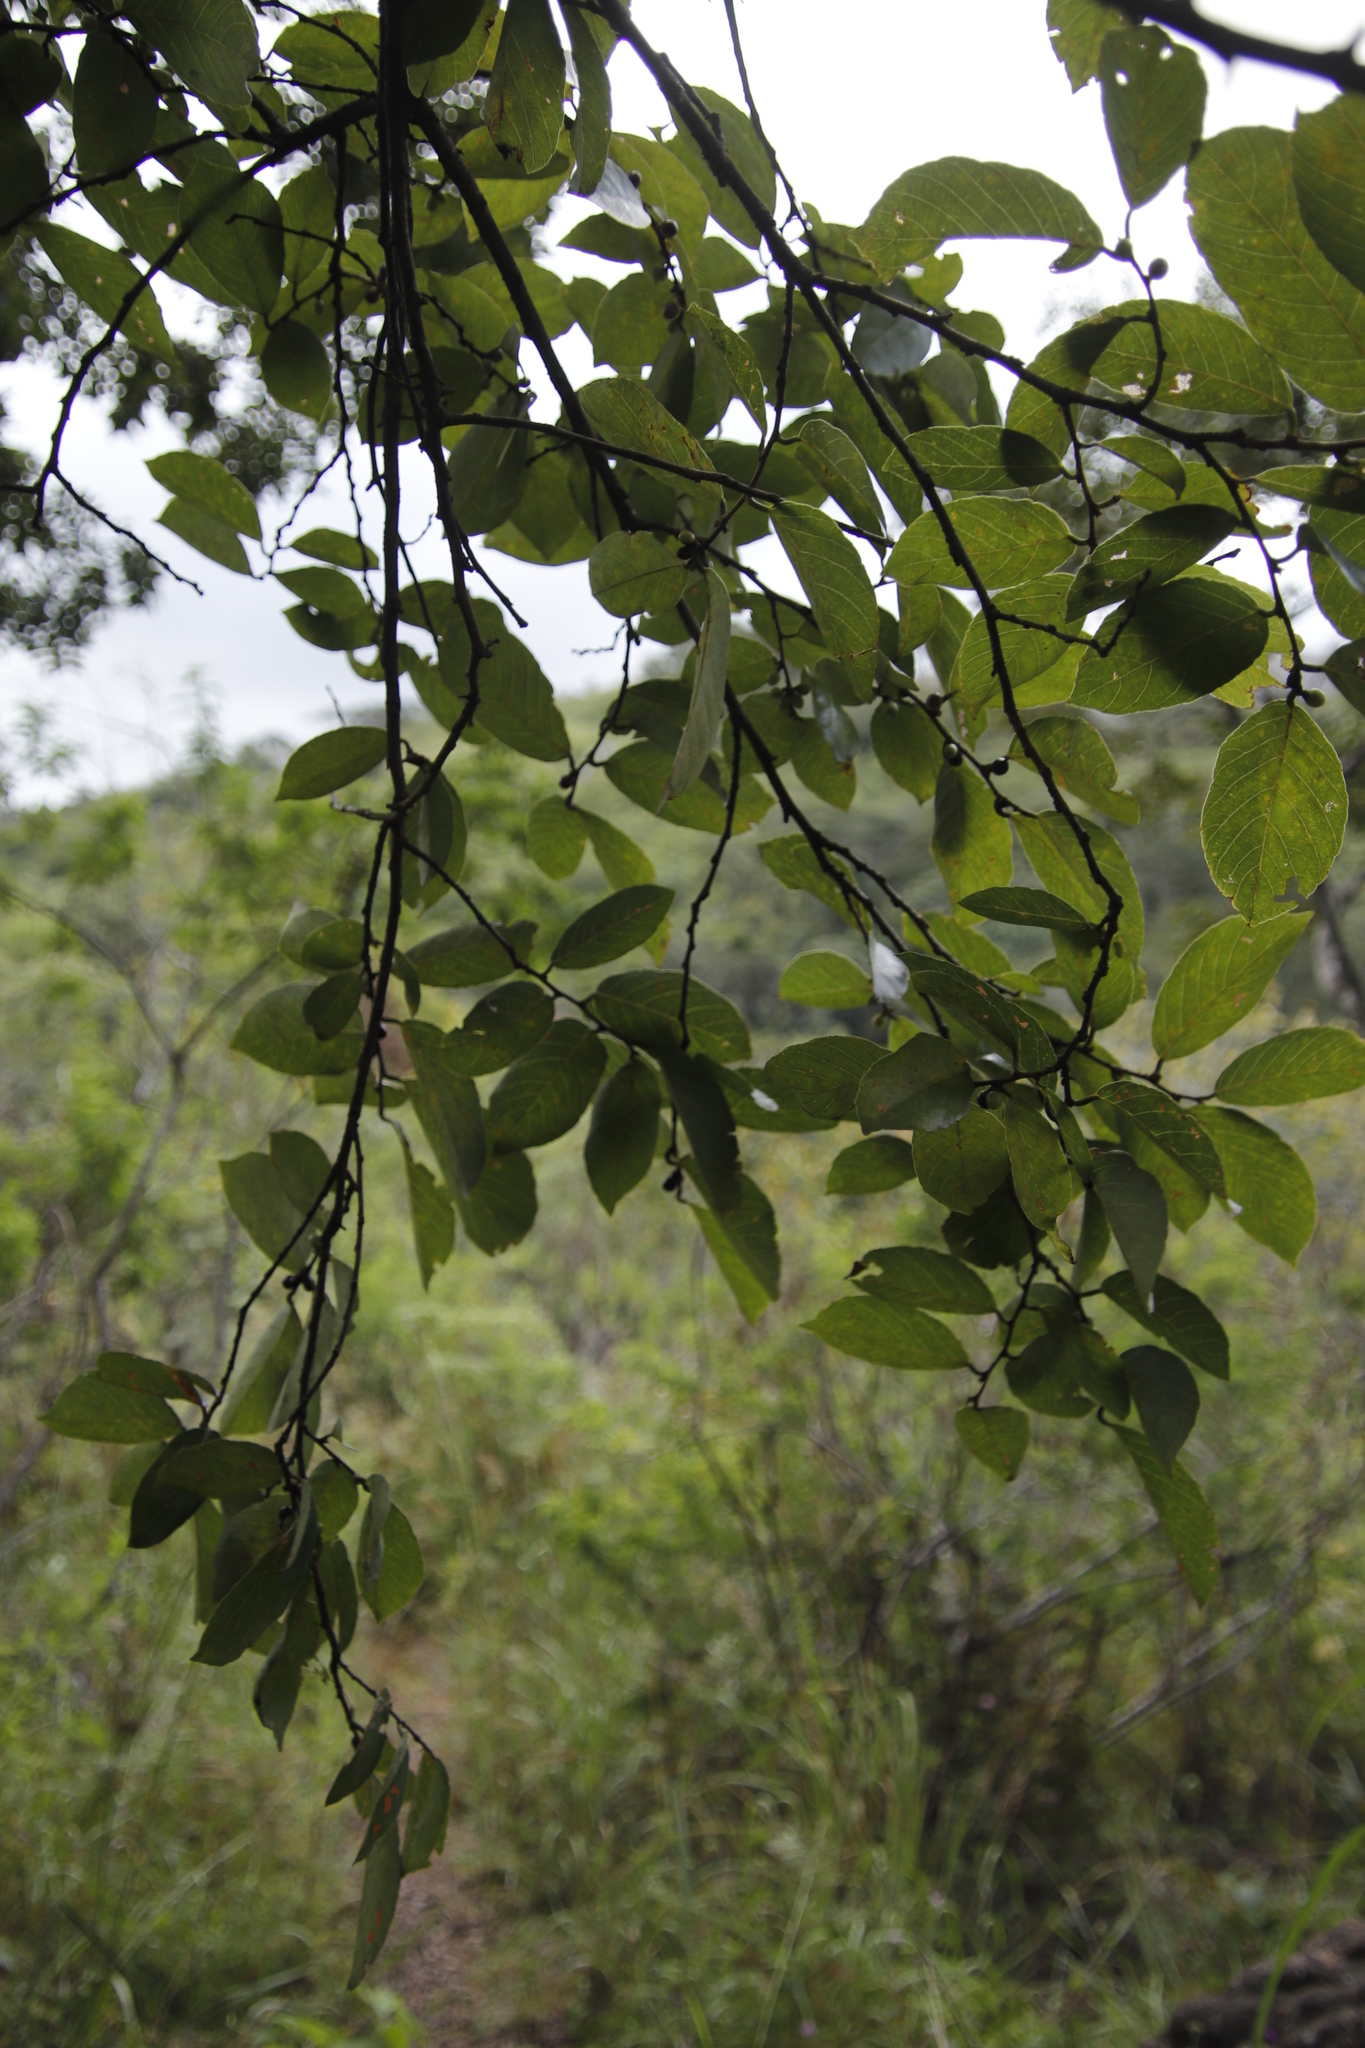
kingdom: Plantae
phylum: Tracheophyta
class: Magnoliopsida
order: Malpighiales
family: Phyllanthaceae
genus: Bridelia
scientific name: Bridelia micrantha
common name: Bridelia
